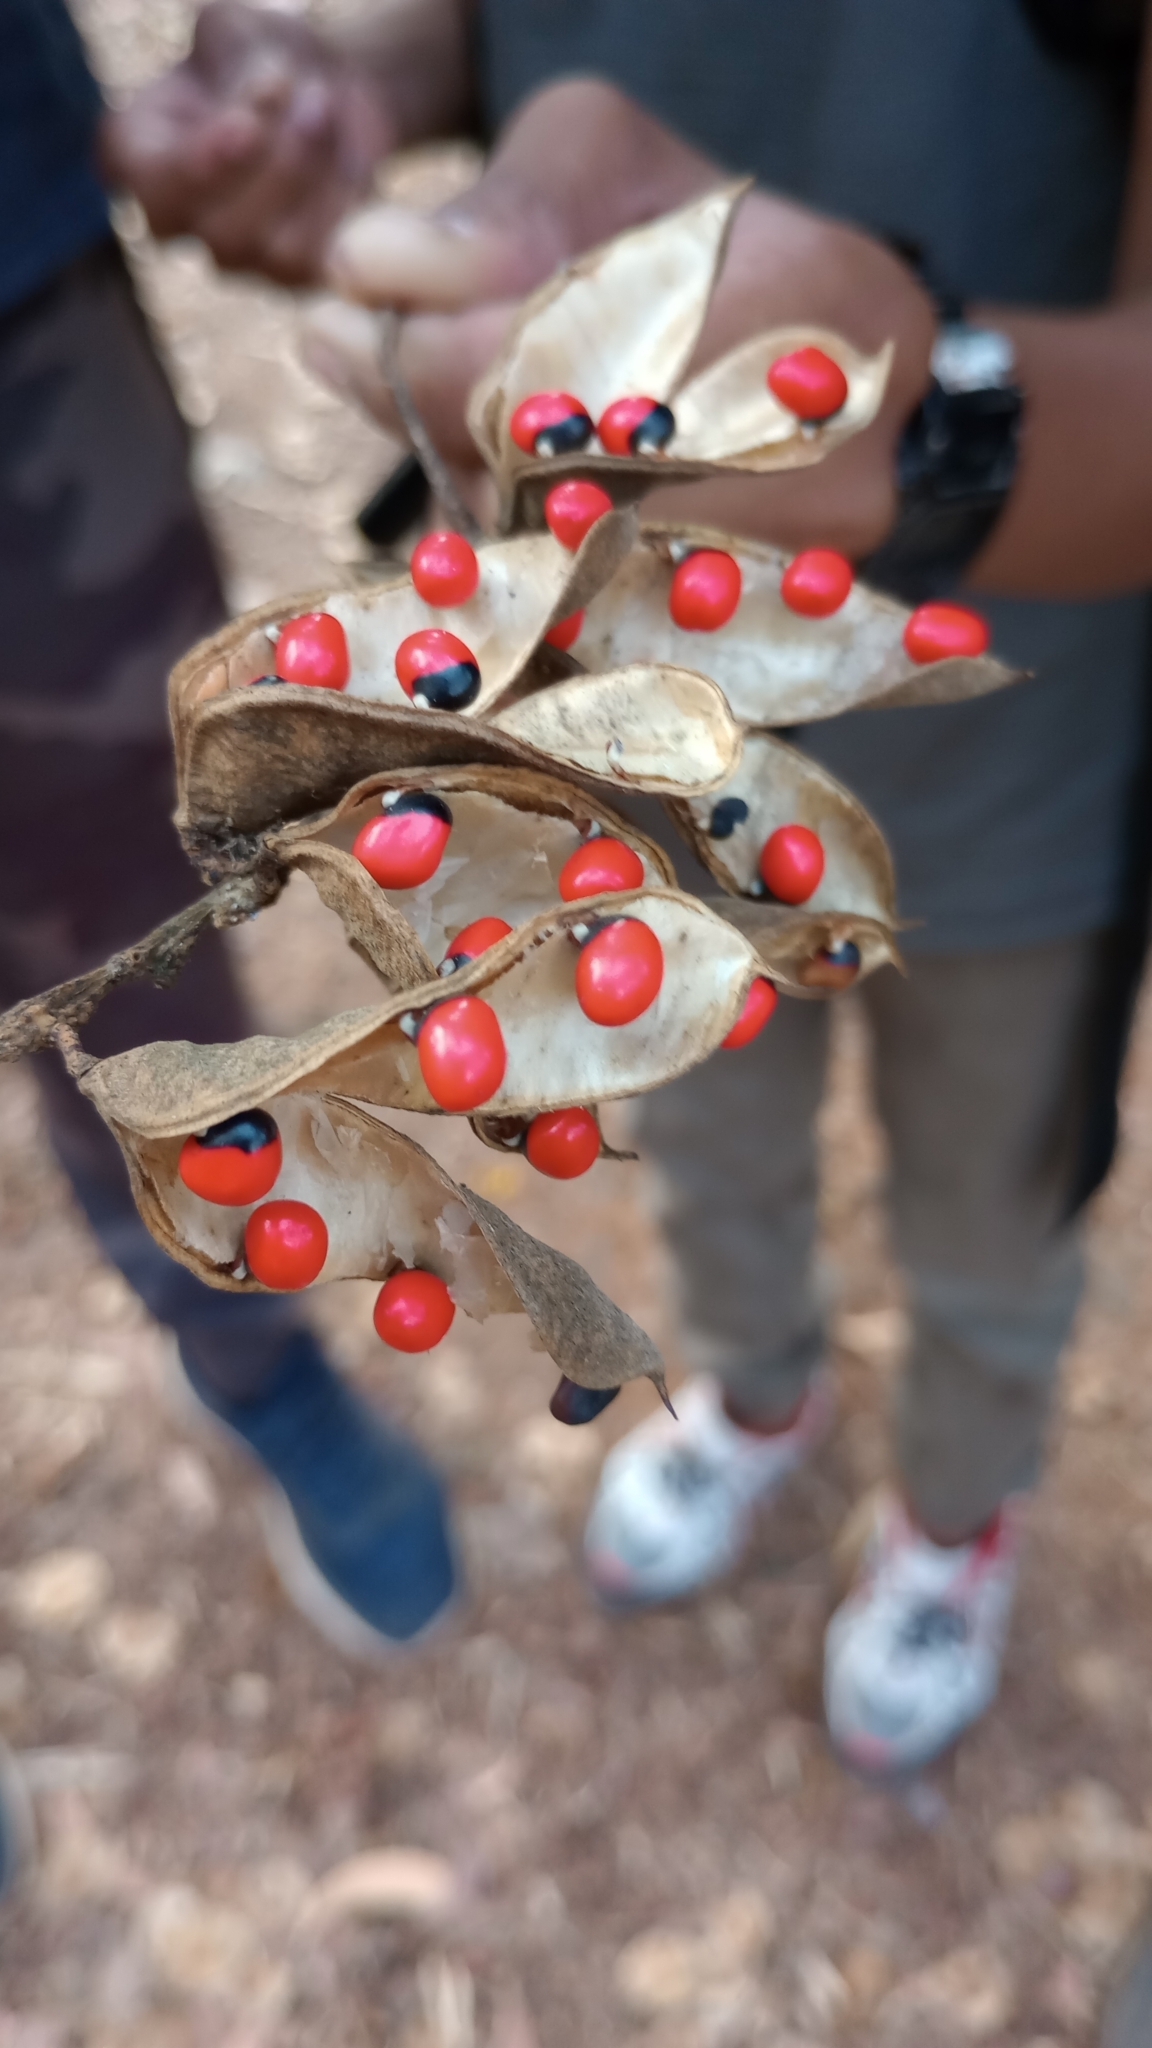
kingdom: Plantae
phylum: Tracheophyta
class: Magnoliopsida
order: Fabales
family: Fabaceae
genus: Abrus
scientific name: Abrus precatorius
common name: Rosarypea
